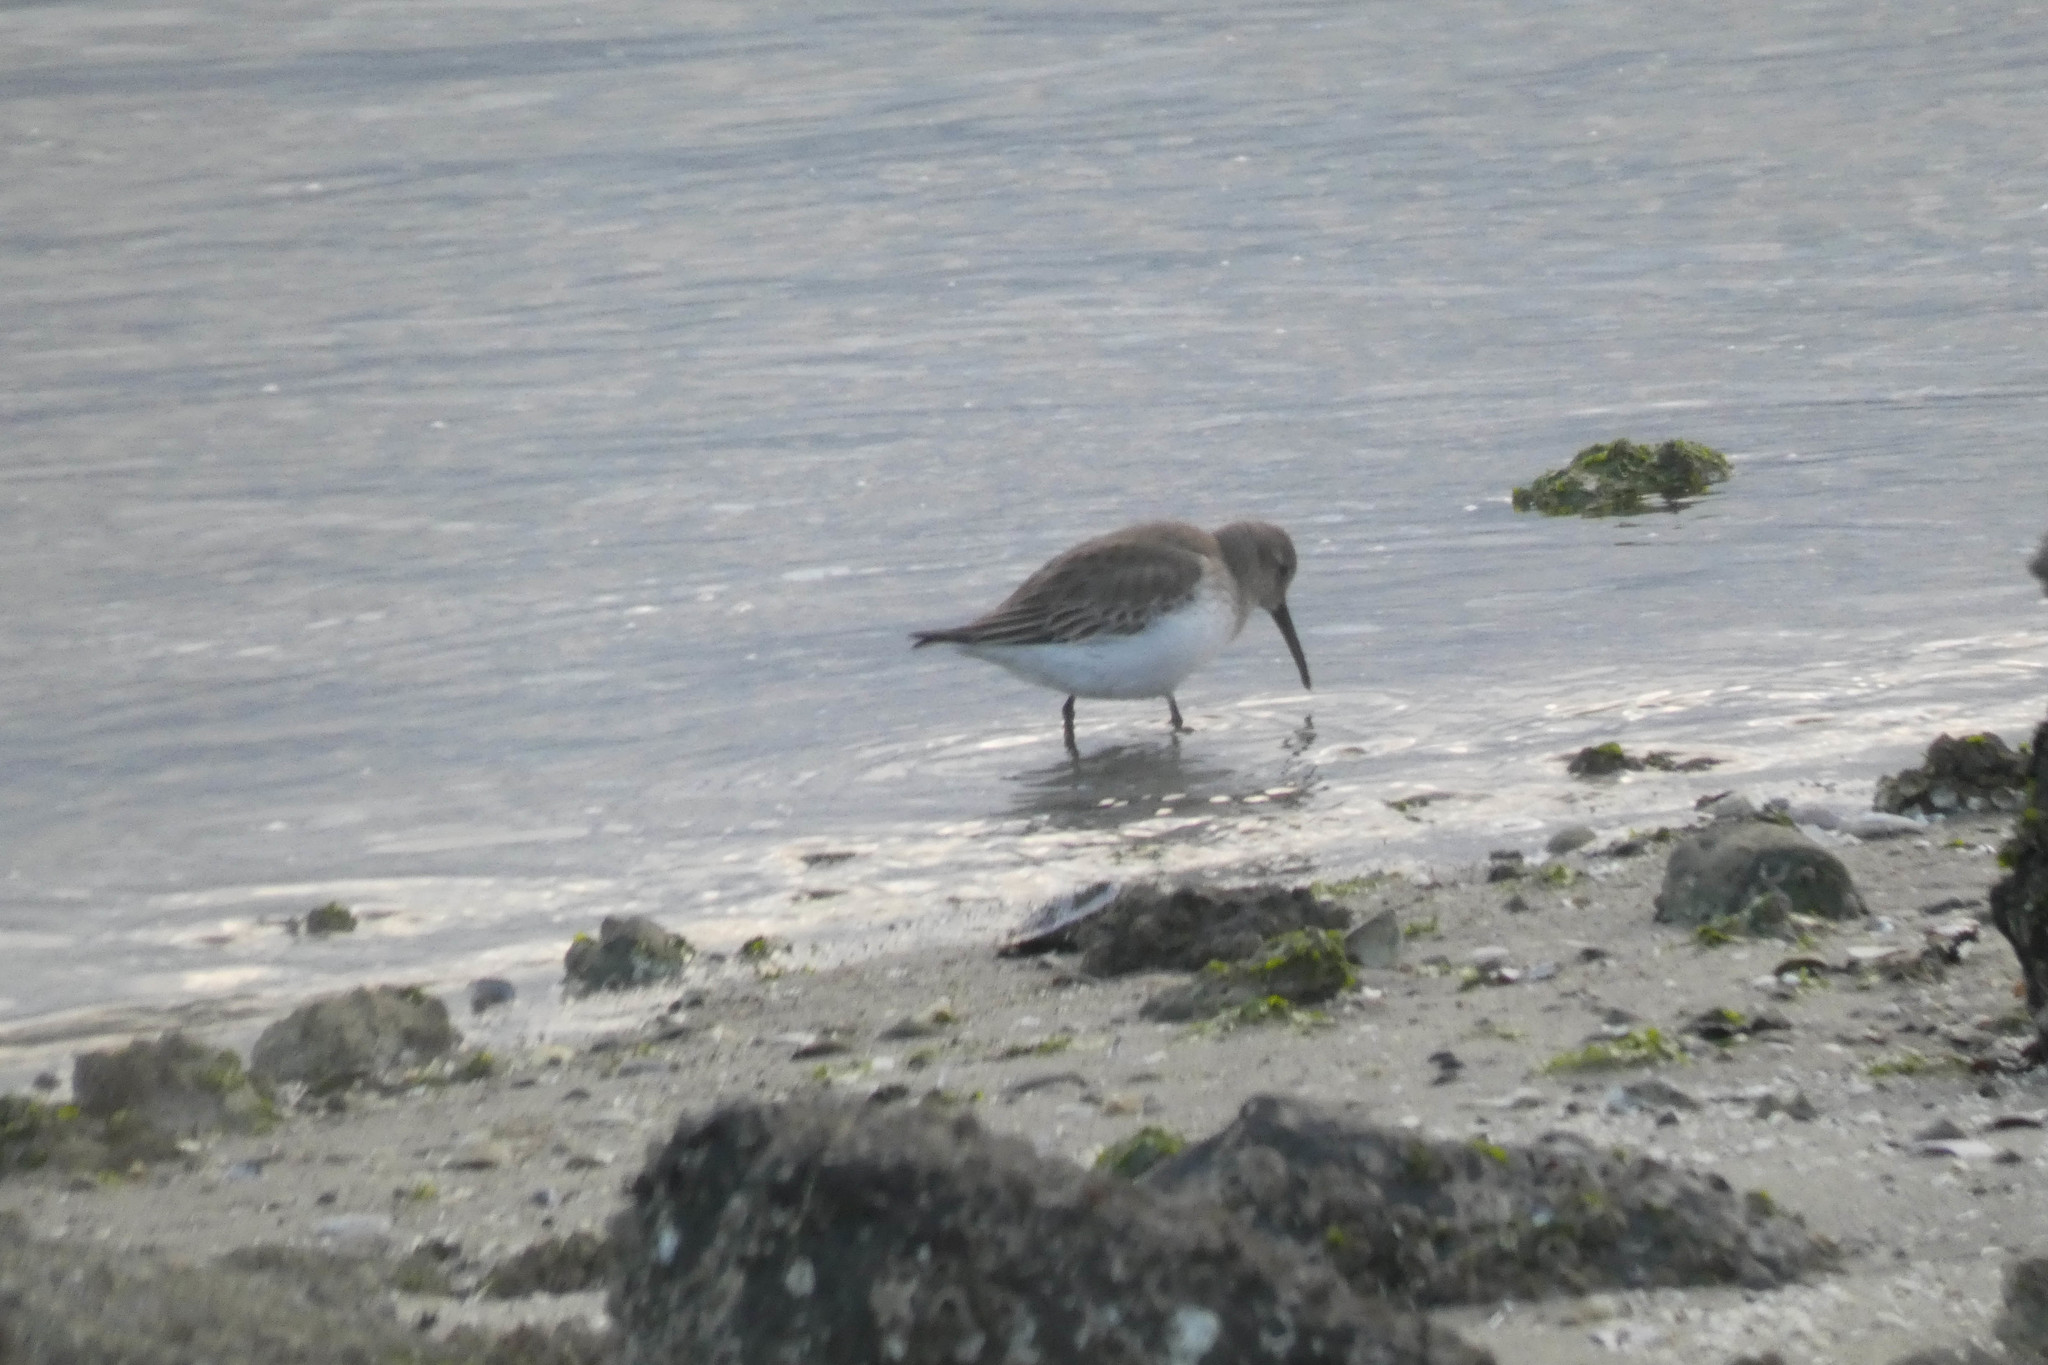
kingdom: Animalia
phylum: Chordata
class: Aves
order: Charadriiformes
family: Scolopacidae
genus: Calidris
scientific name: Calidris alpina
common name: Dunlin
